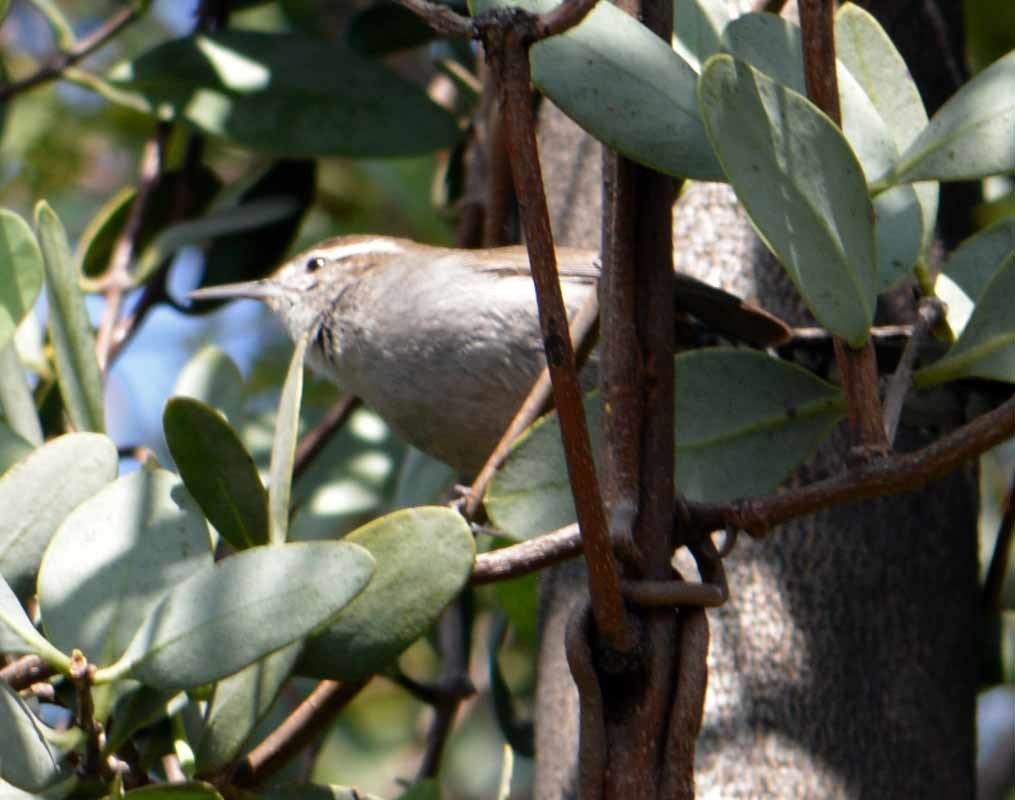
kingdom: Animalia
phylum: Chordata
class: Aves
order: Passeriformes
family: Troglodytidae
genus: Thryomanes
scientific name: Thryomanes bewickii
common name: Bewick's wren
